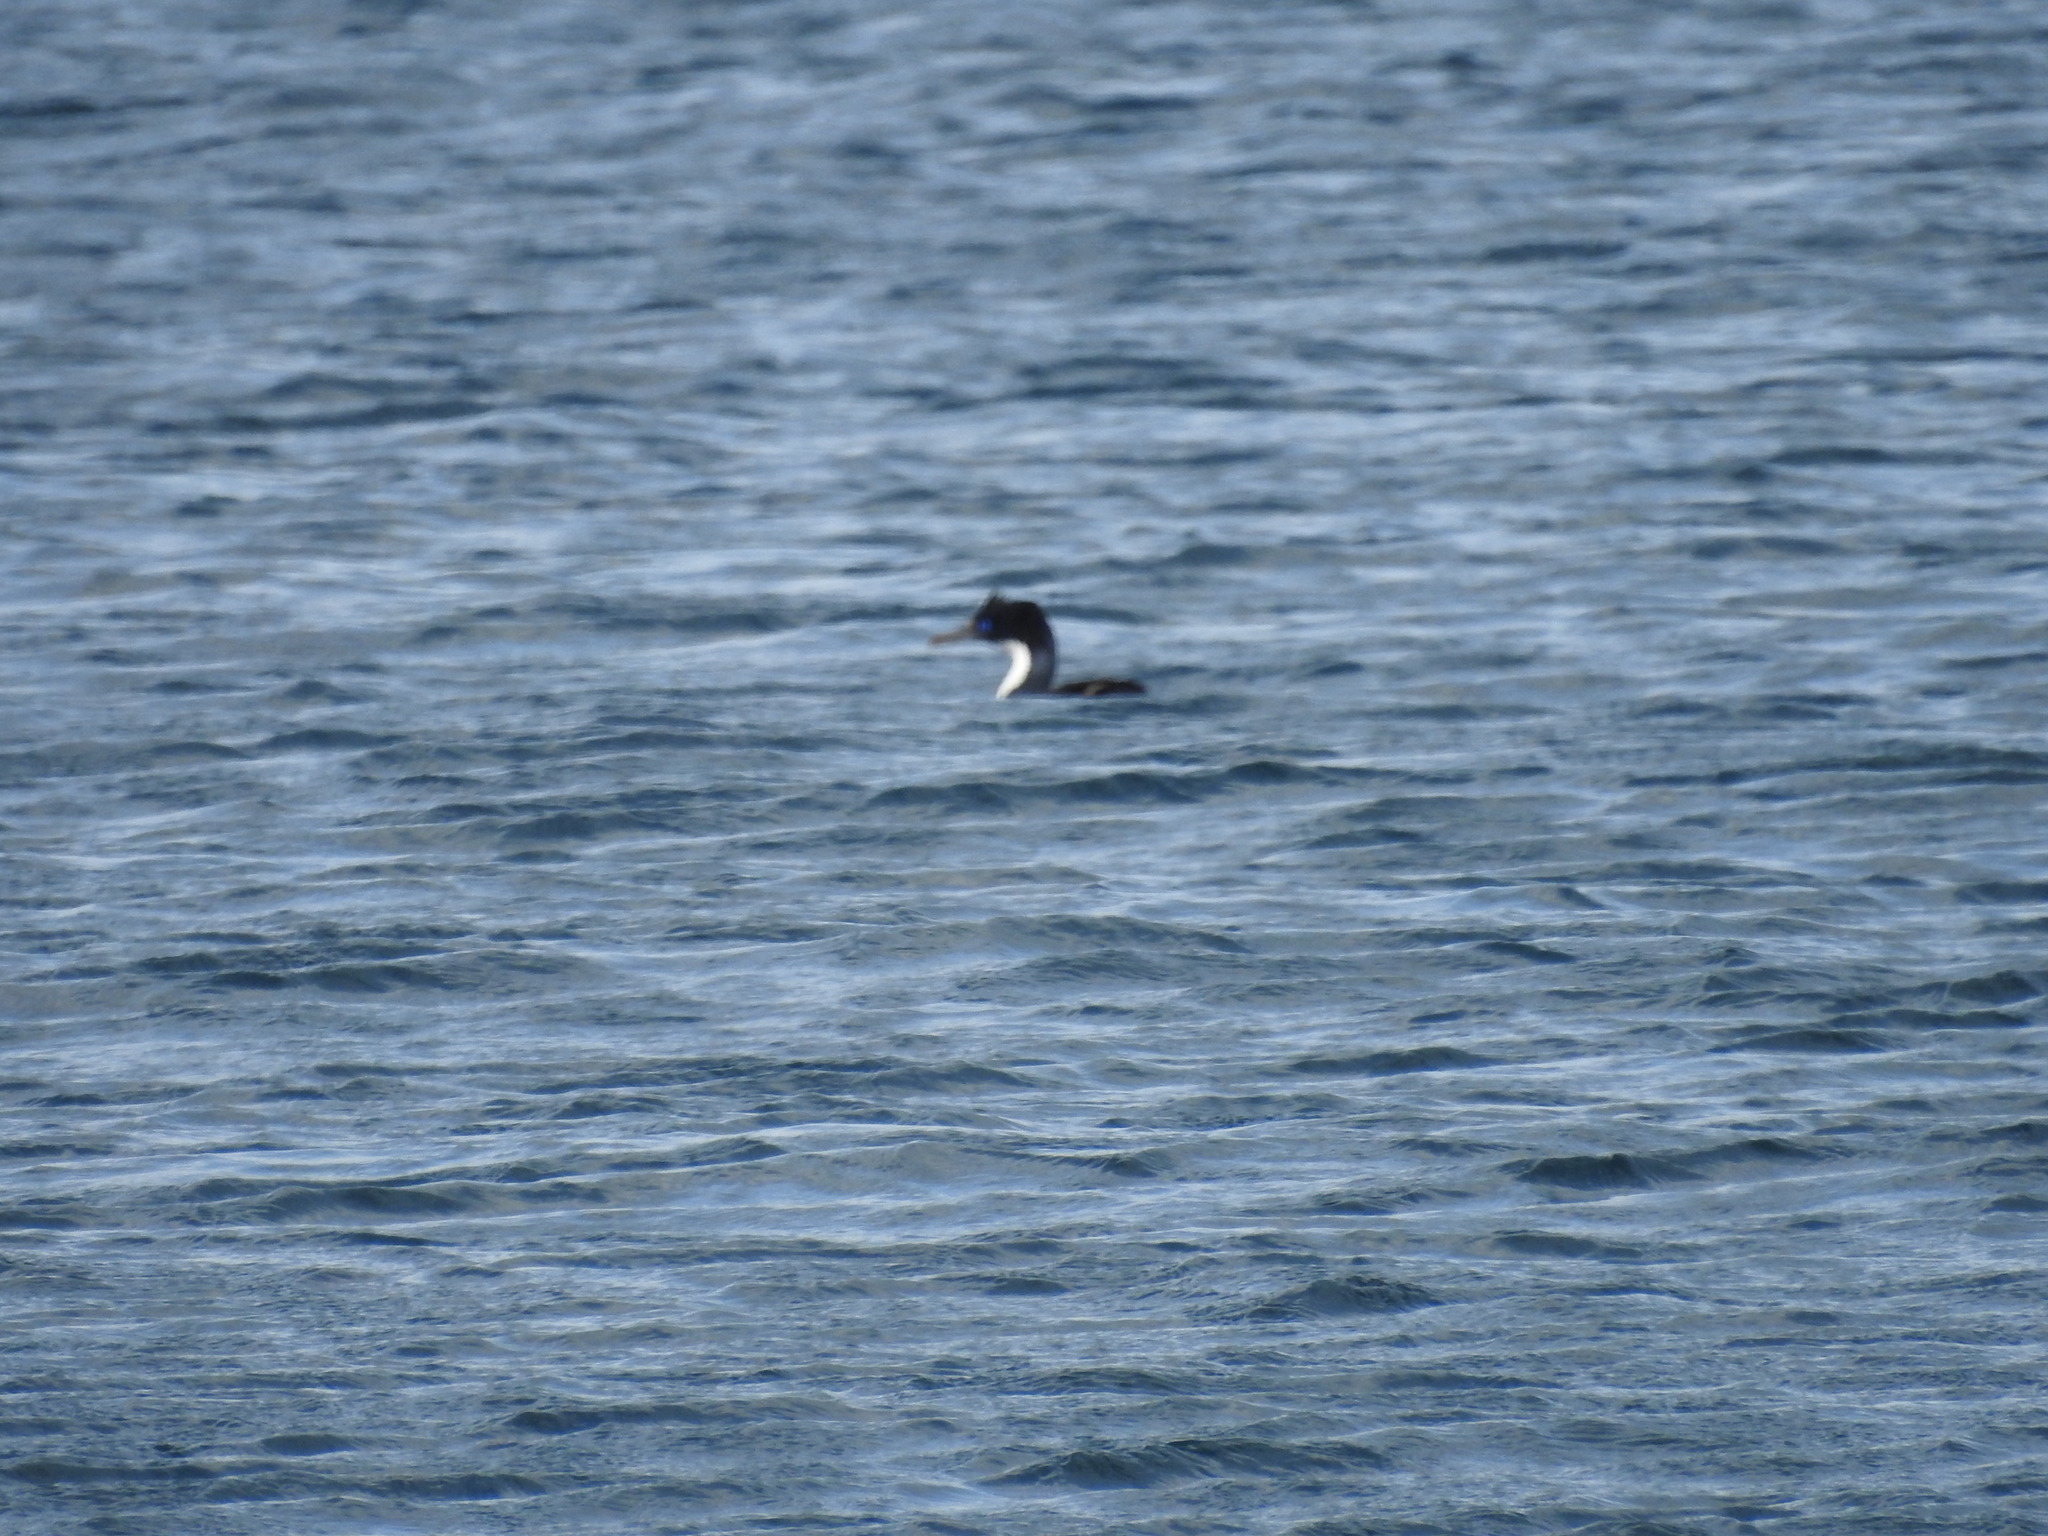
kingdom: Animalia
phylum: Chordata
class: Aves
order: Suliformes
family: Phalacrocoracidae
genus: Leucocarbo
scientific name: Leucocarbo atriceps
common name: Imperial shag
